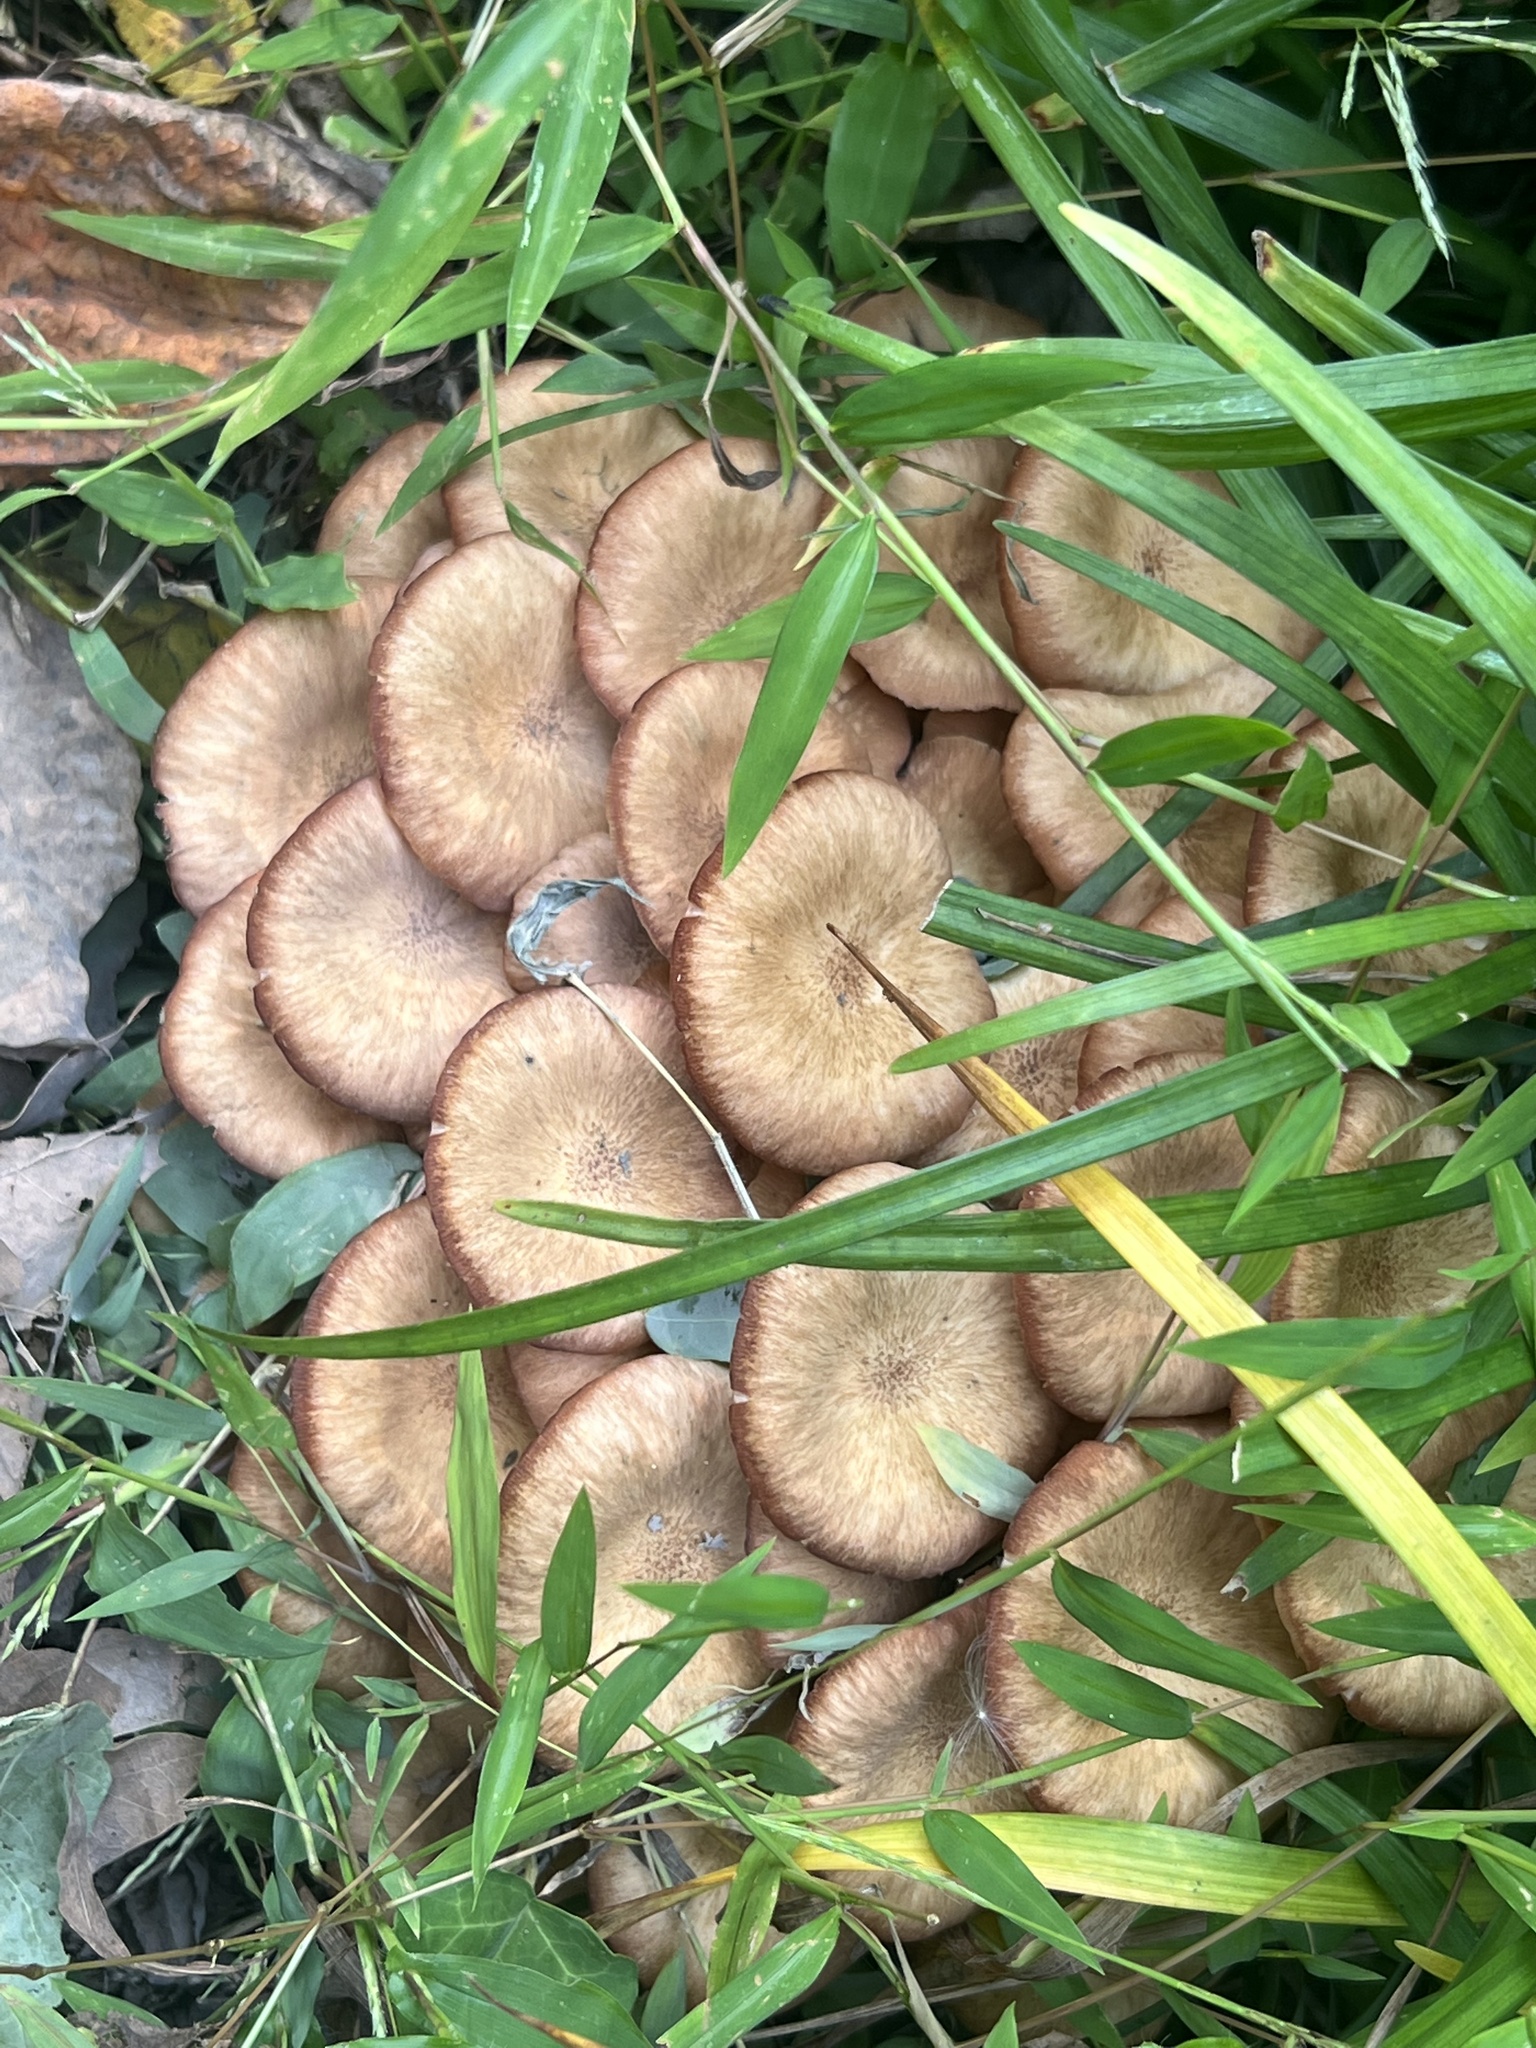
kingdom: Fungi
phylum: Basidiomycota
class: Agaricomycetes
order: Agaricales
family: Physalacriaceae
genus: Desarmillaria
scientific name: Desarmillaria caespitosa
